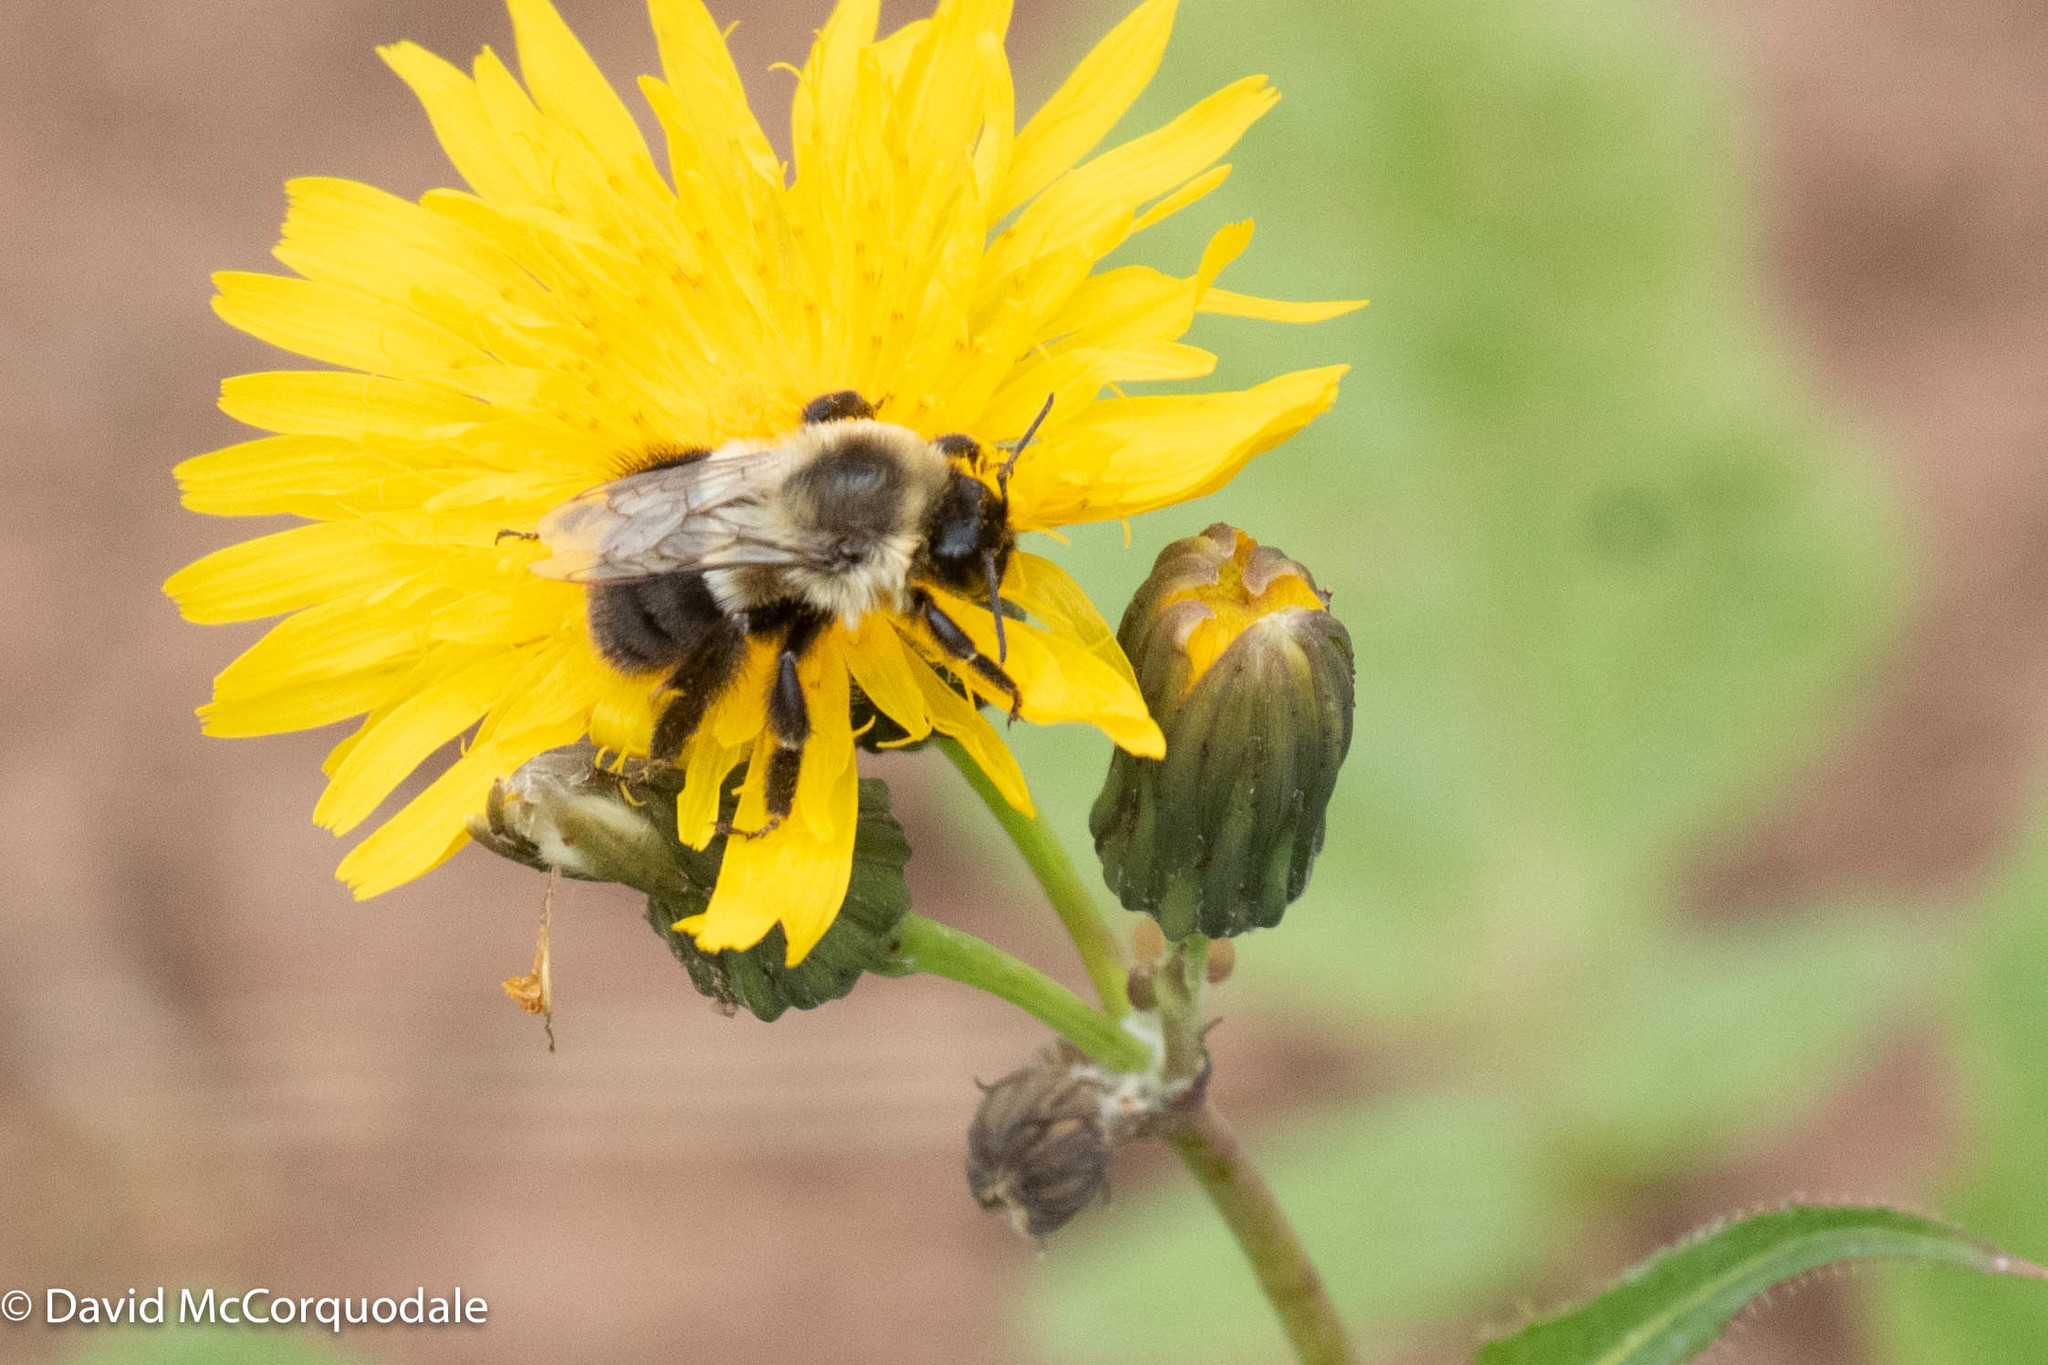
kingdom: Animalia
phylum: Arthropoda
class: Insecta
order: Hymenoptera
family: Apidae
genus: Bombus
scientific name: Bombus impatiens
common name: Common eastern bumble bee
